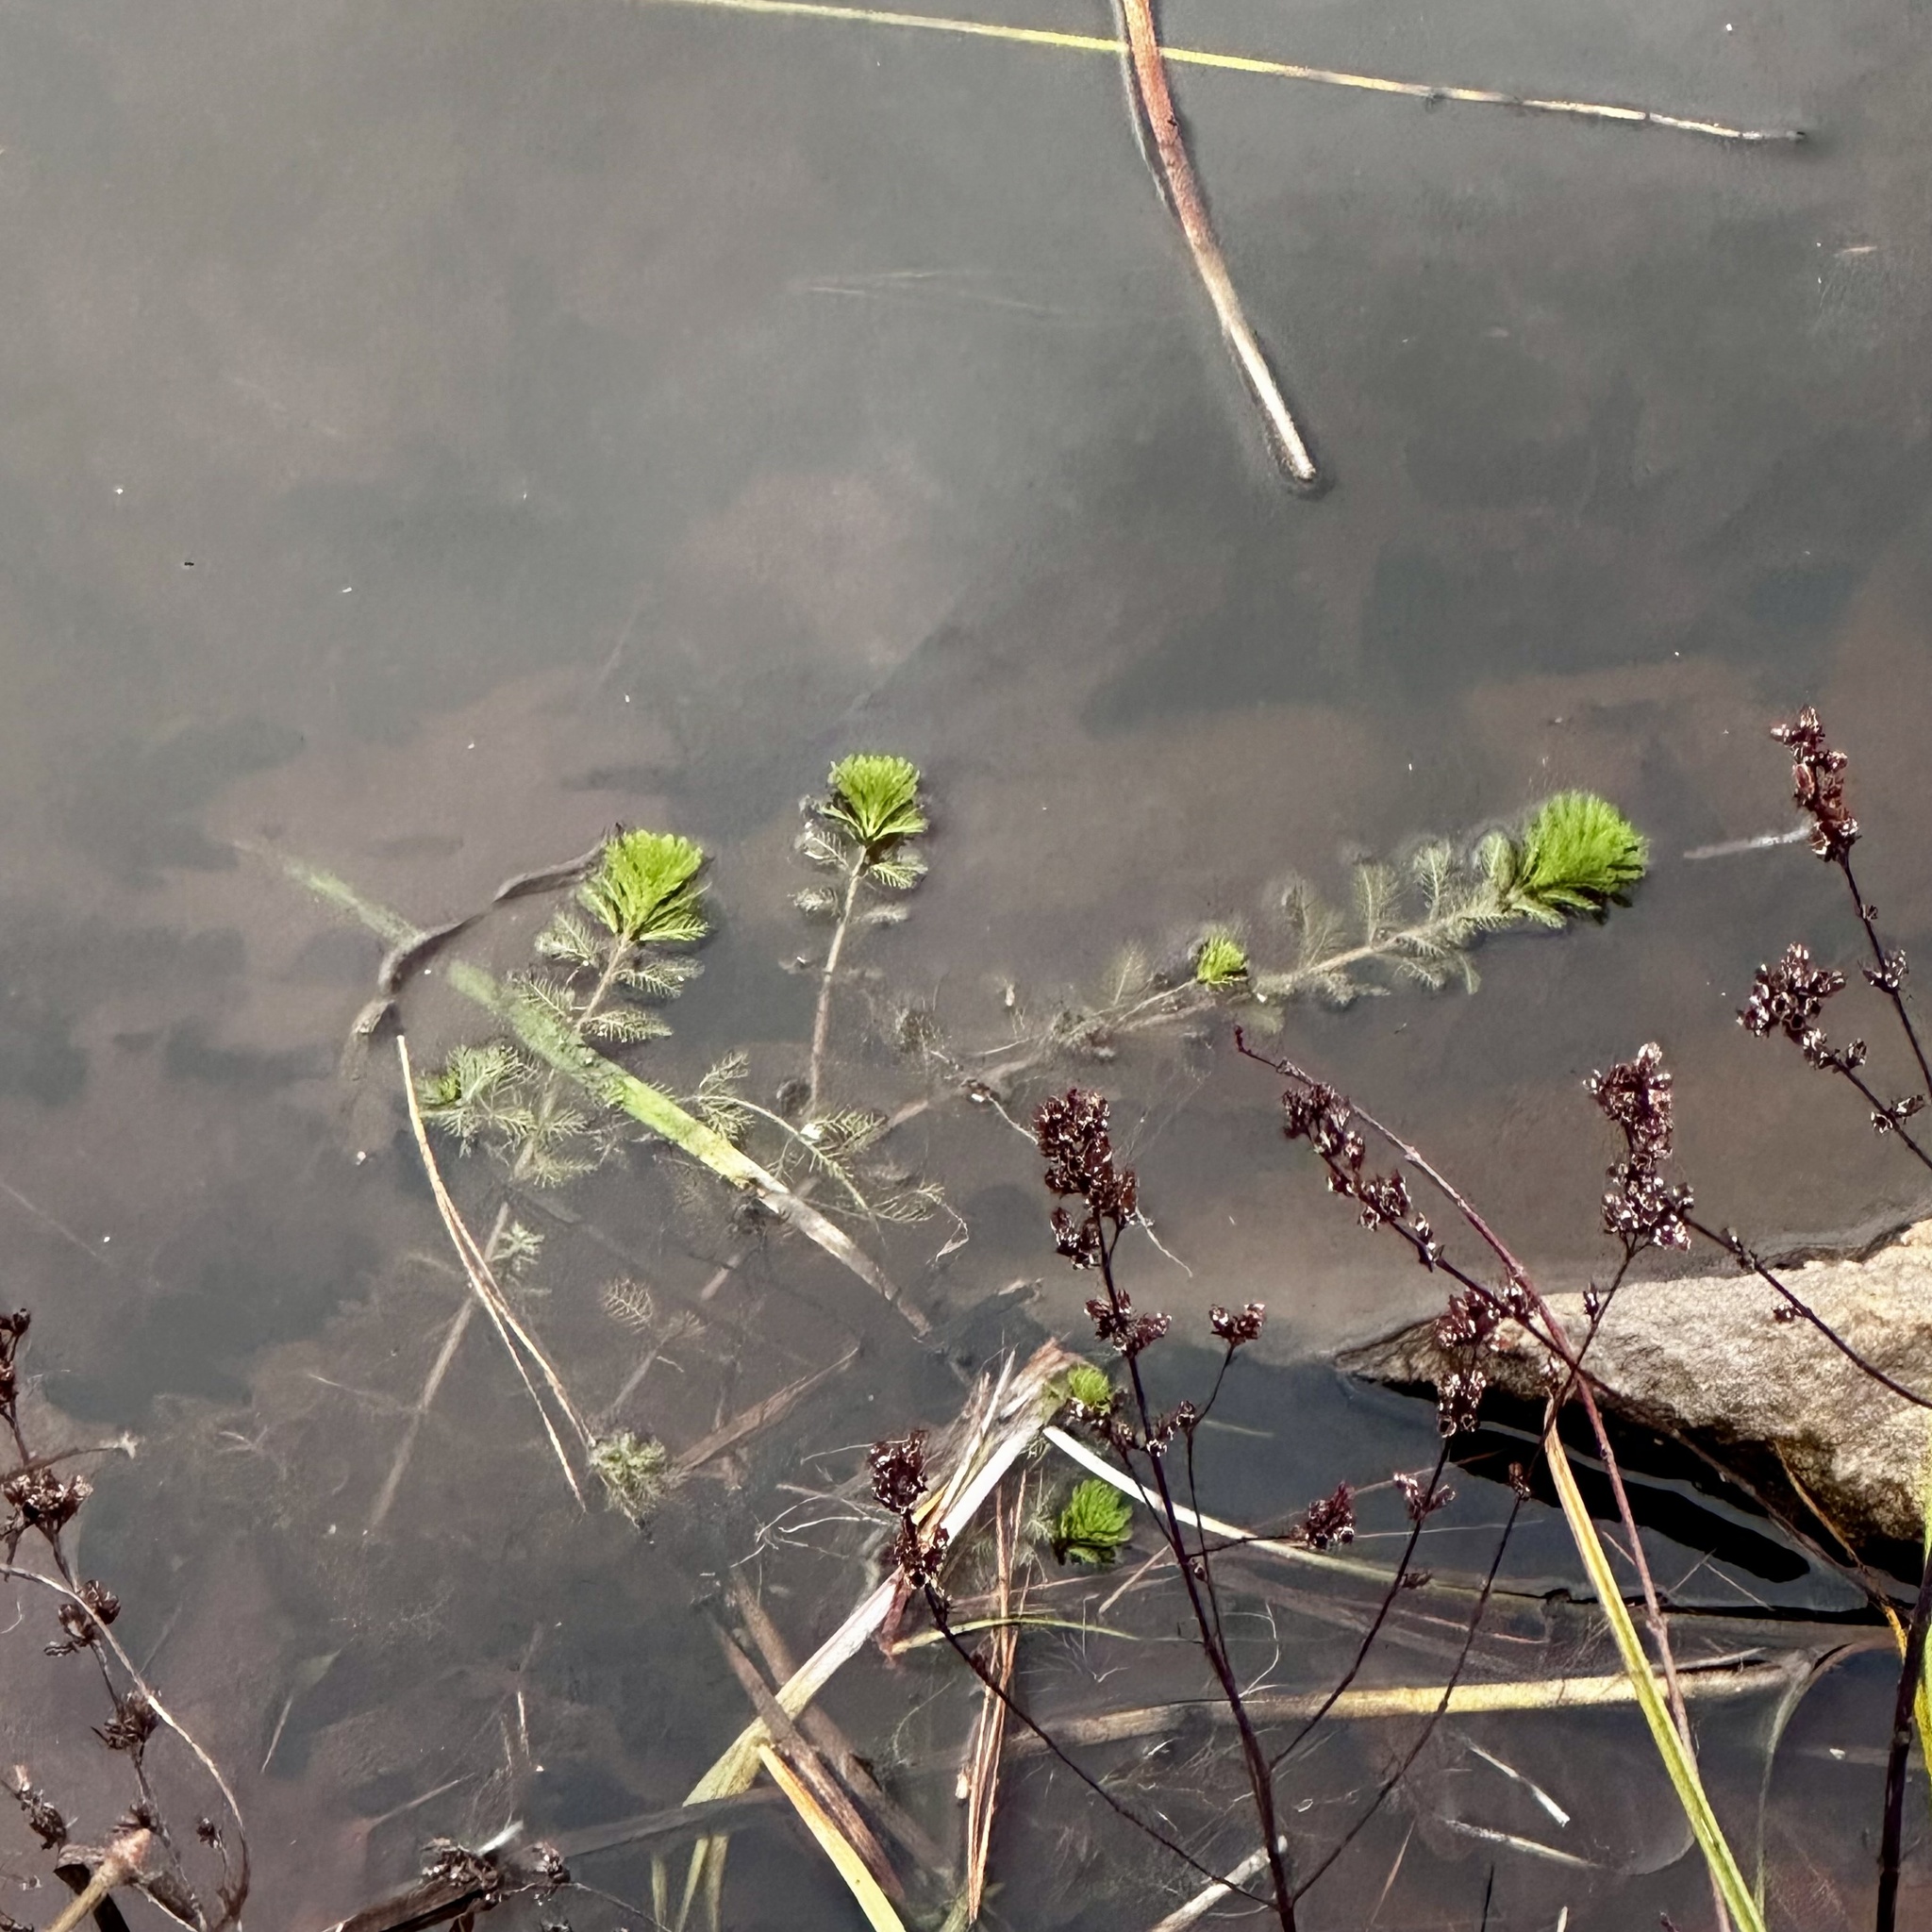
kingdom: Plantae
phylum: Tracheophyta
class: Magnoliopsida
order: Saxifragales
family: Haloragaceae
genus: Myriophyllum
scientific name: Myriophyllum aquaticum
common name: Parrot's feather
